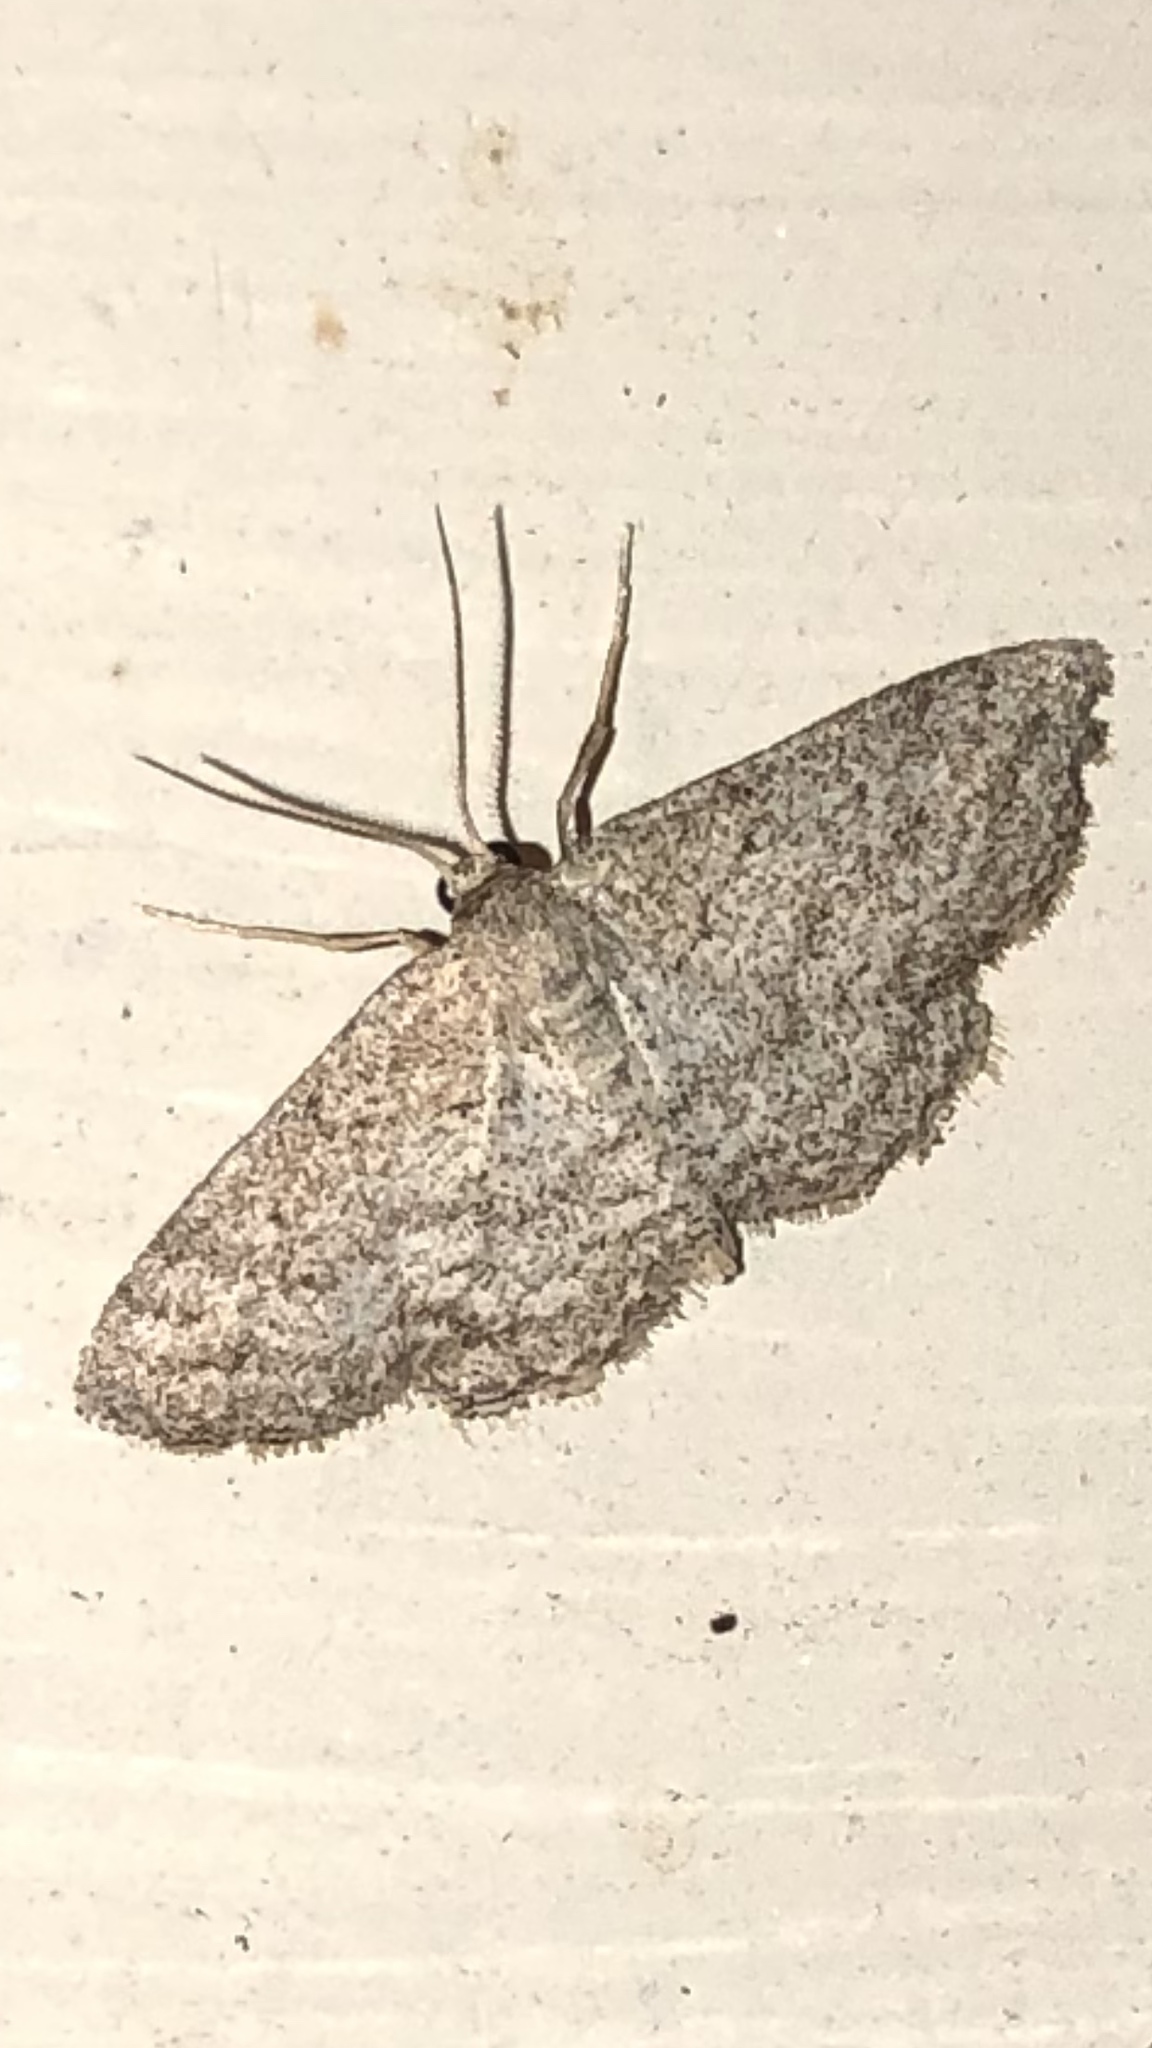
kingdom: Animalia
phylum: Arthropoda
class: Insecta
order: Lepidoptera
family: Geometridae
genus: Lobocleta
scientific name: Lobocleta ossularia
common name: Drab brown wave
